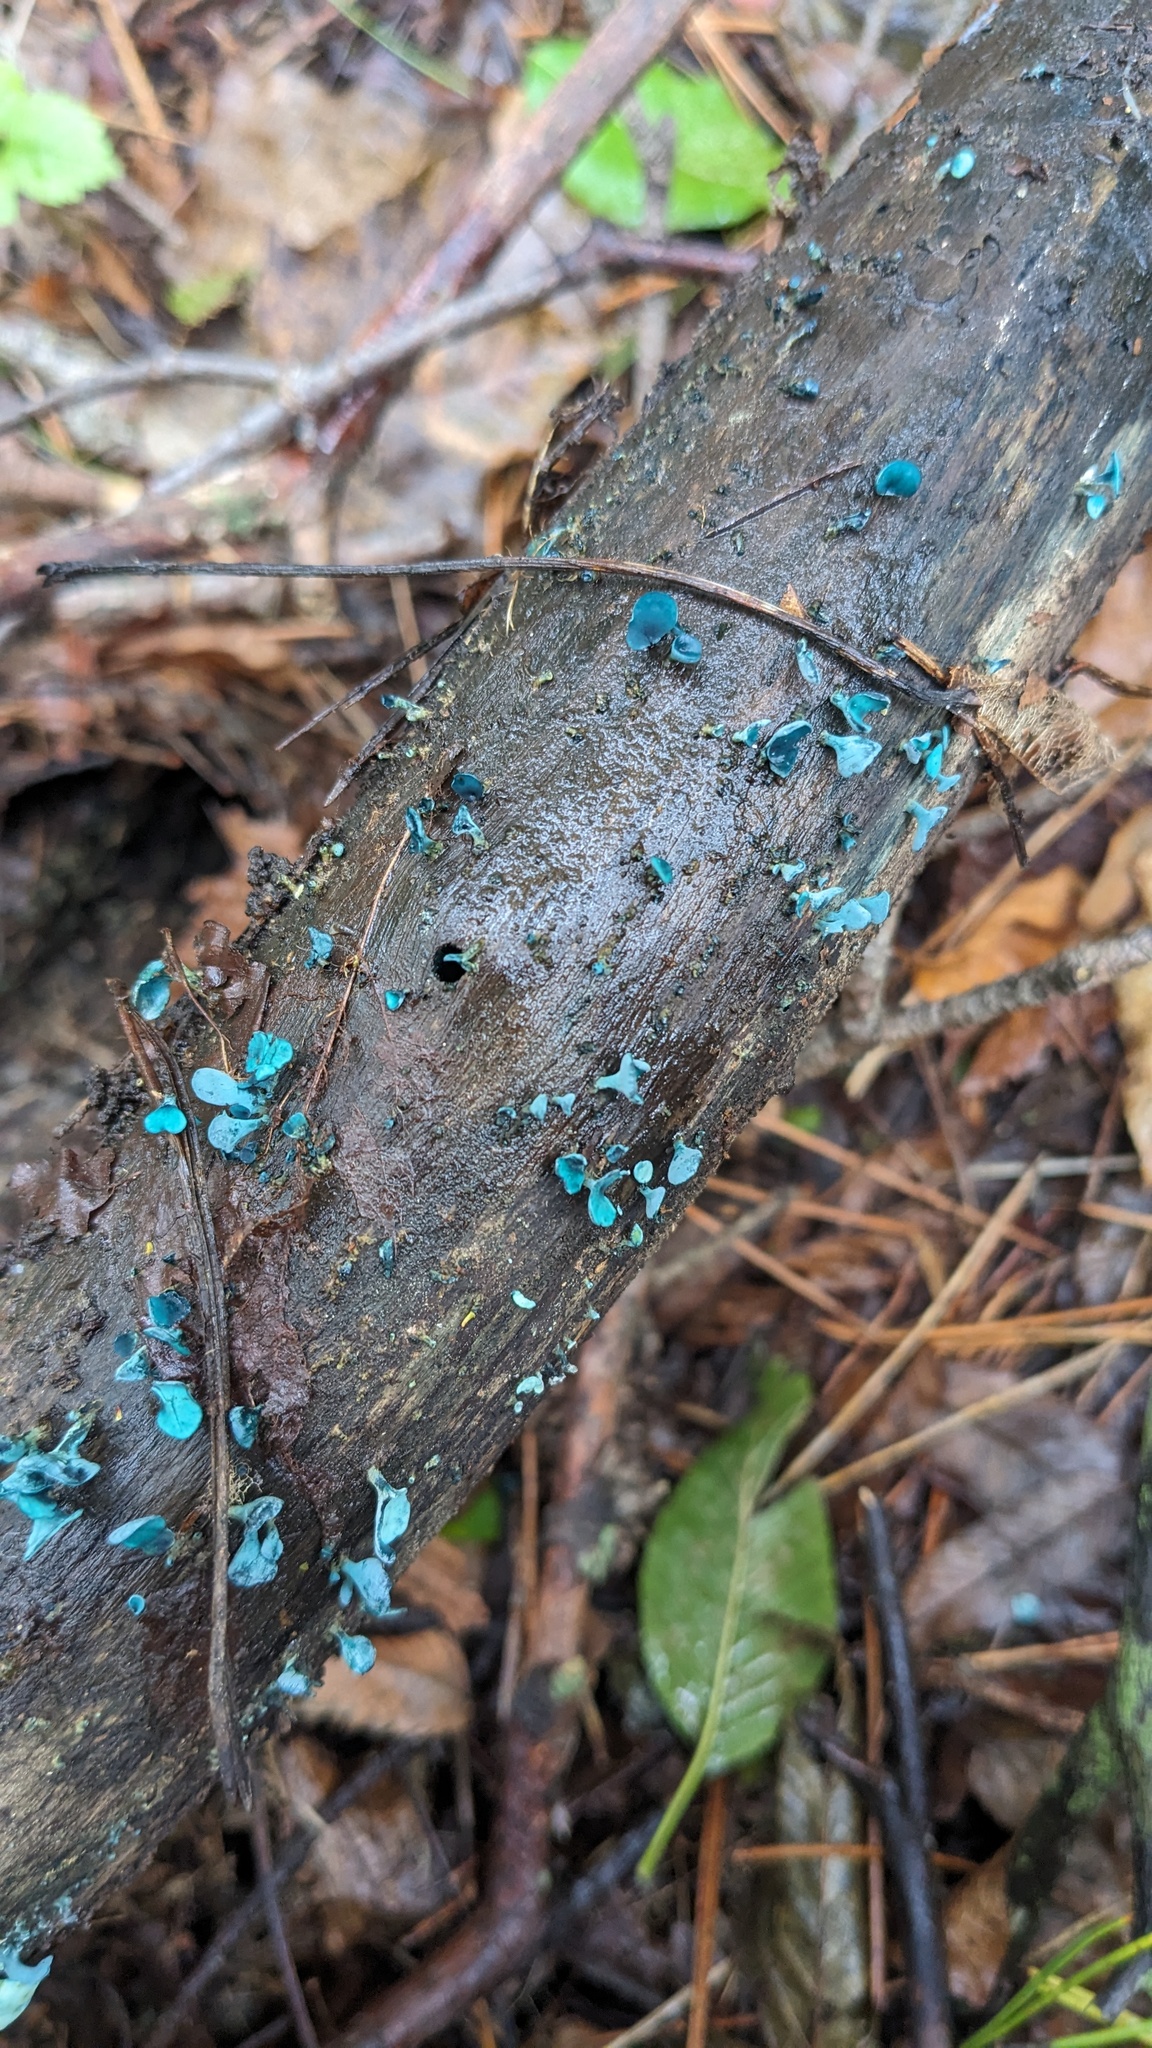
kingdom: Fungi
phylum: Ascomycota
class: Leotiomycetes
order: Helotiales
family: Chlorociboriaceae
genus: Chlorociboria
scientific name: Chlorociboria aeruginascens
